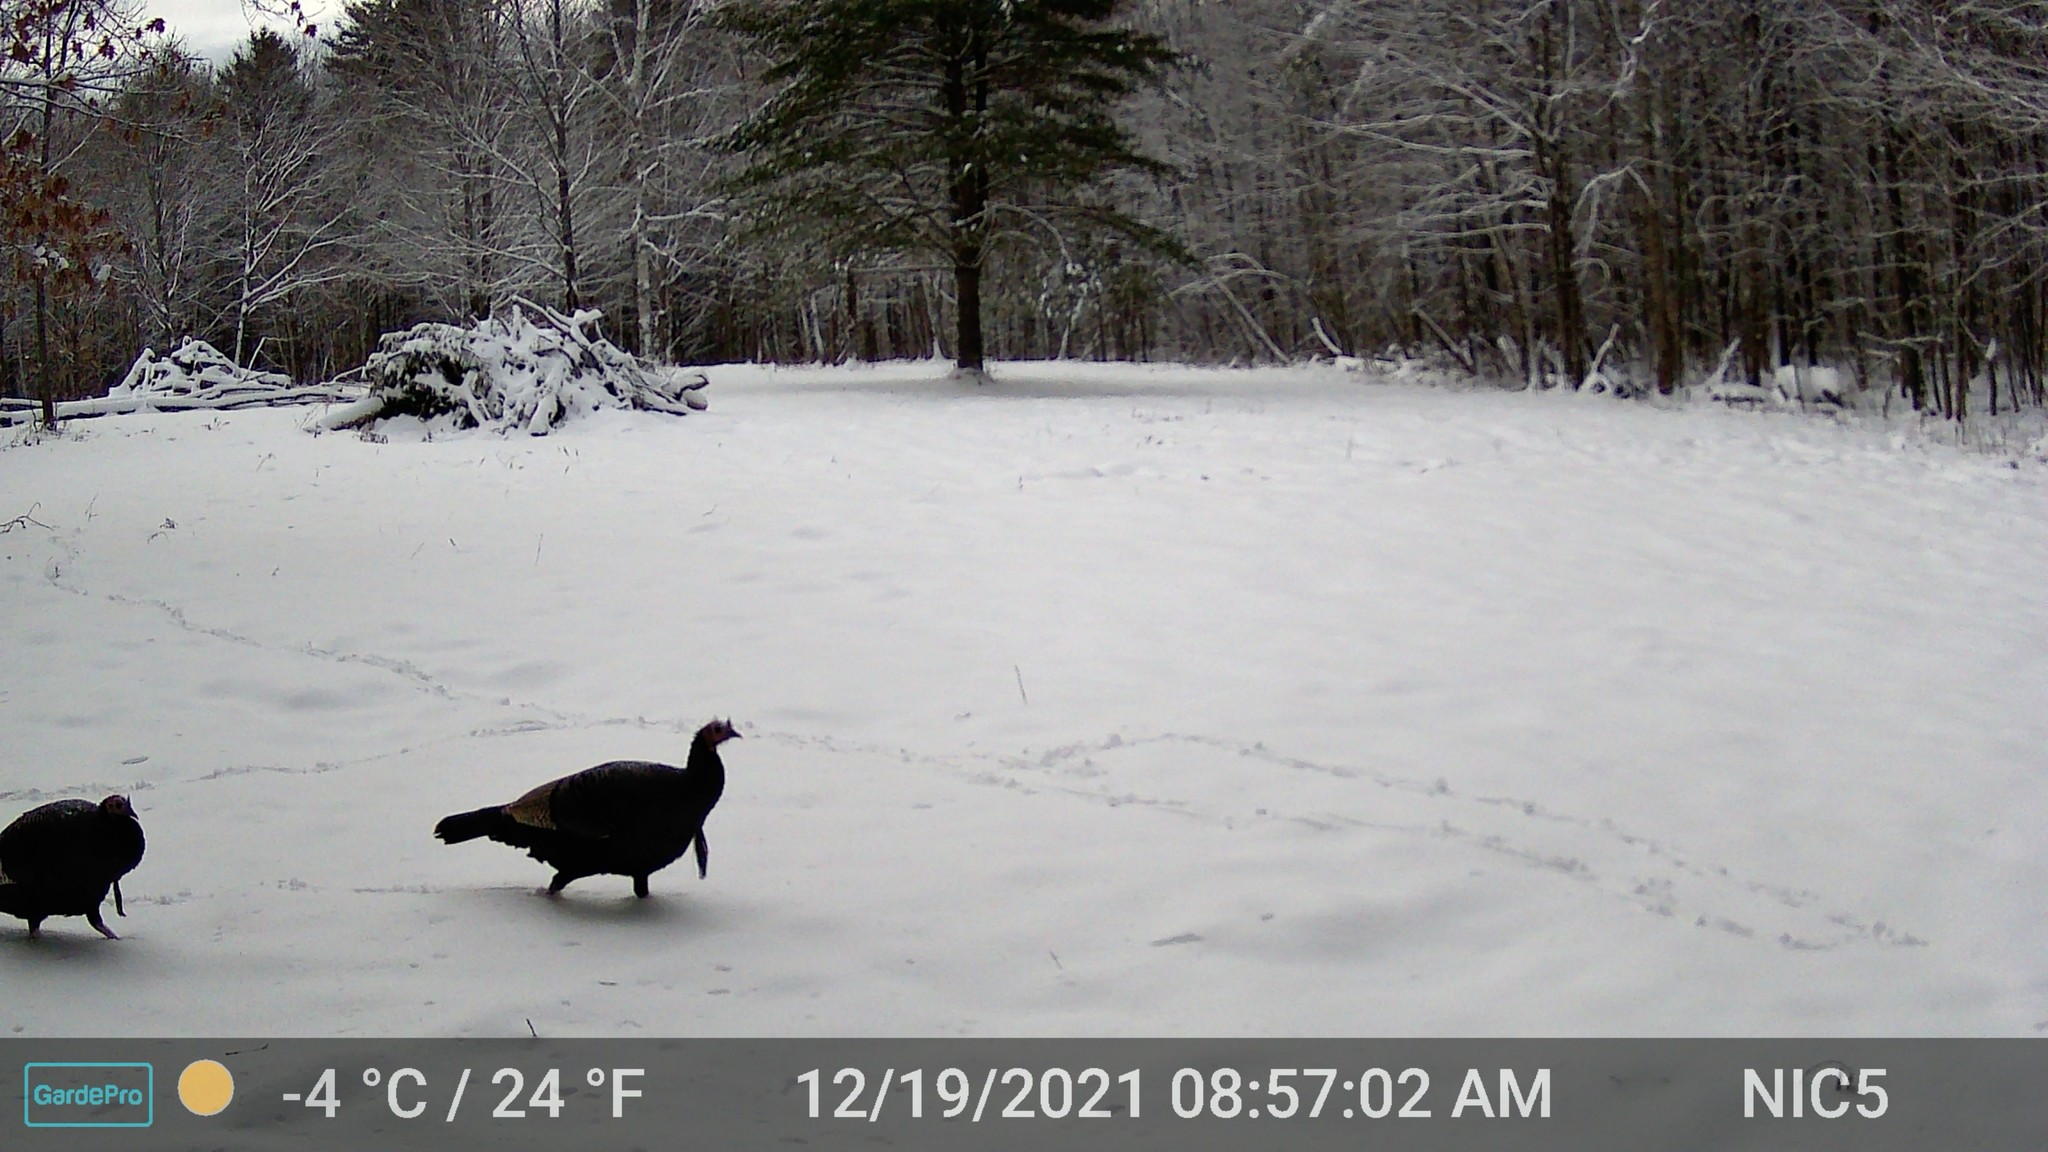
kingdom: Animalia
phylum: Chordata
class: Aves
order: Galliformes
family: Phasianidae
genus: Meleagris
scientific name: Meleagris gallopavo
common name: Wild turkey
